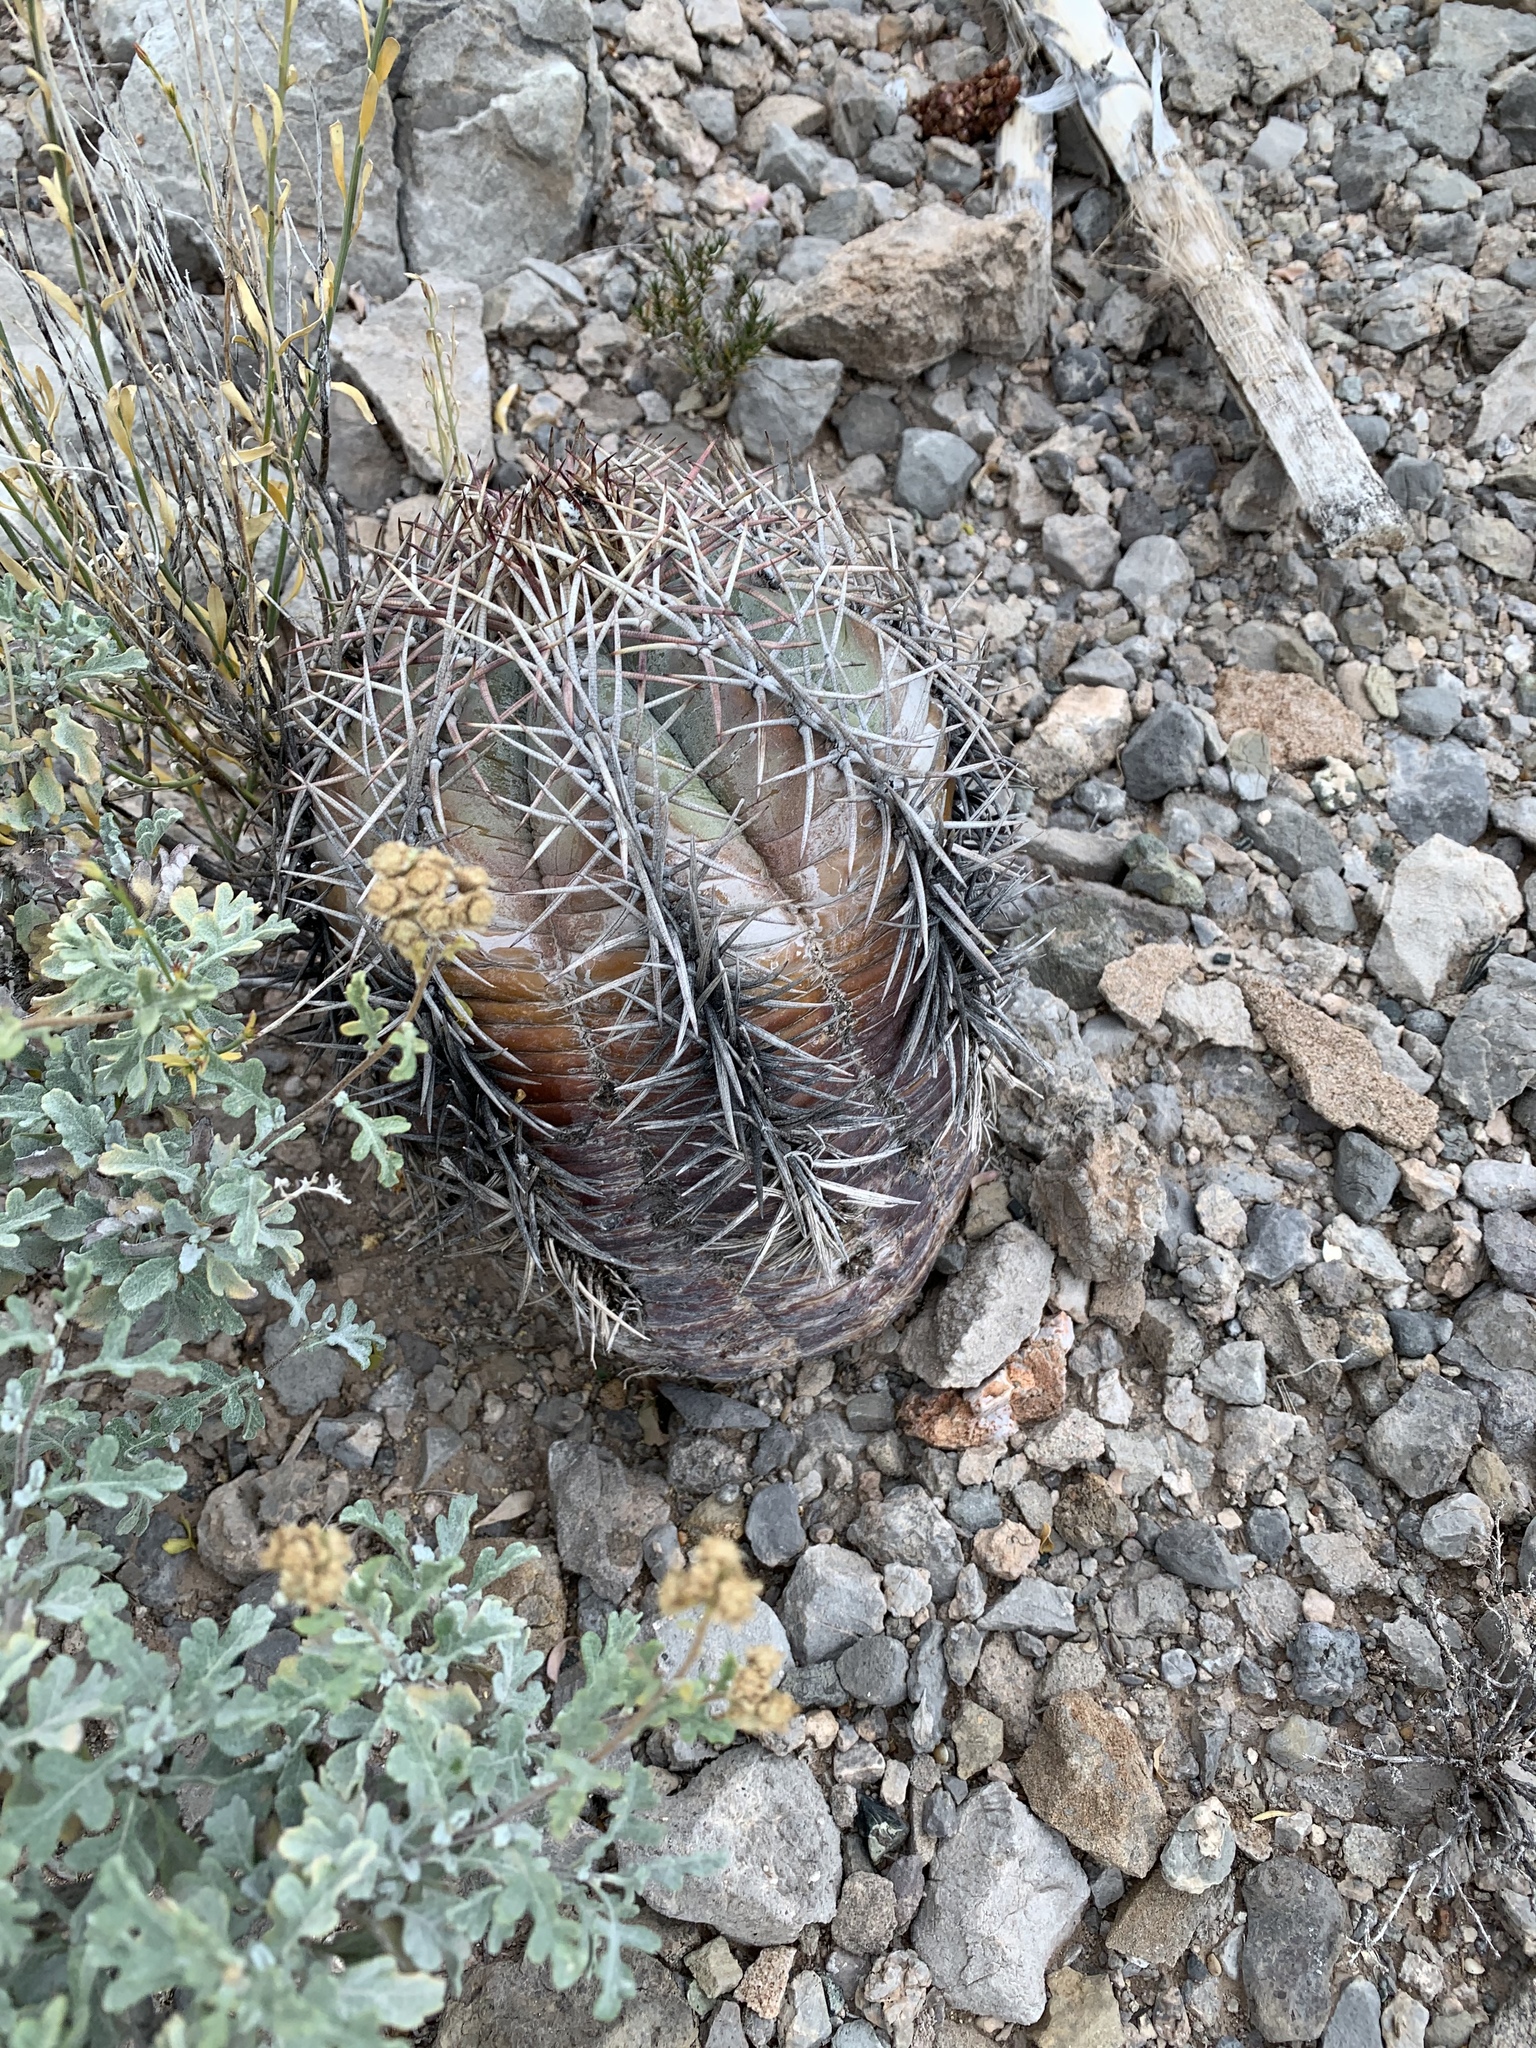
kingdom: Plantae
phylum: Tracheophyta
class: Magnoliopsida
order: Caryophyllales
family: Cactaceae
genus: Echinocactus
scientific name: Echinocactus horizonthalonius
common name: Devilshead
